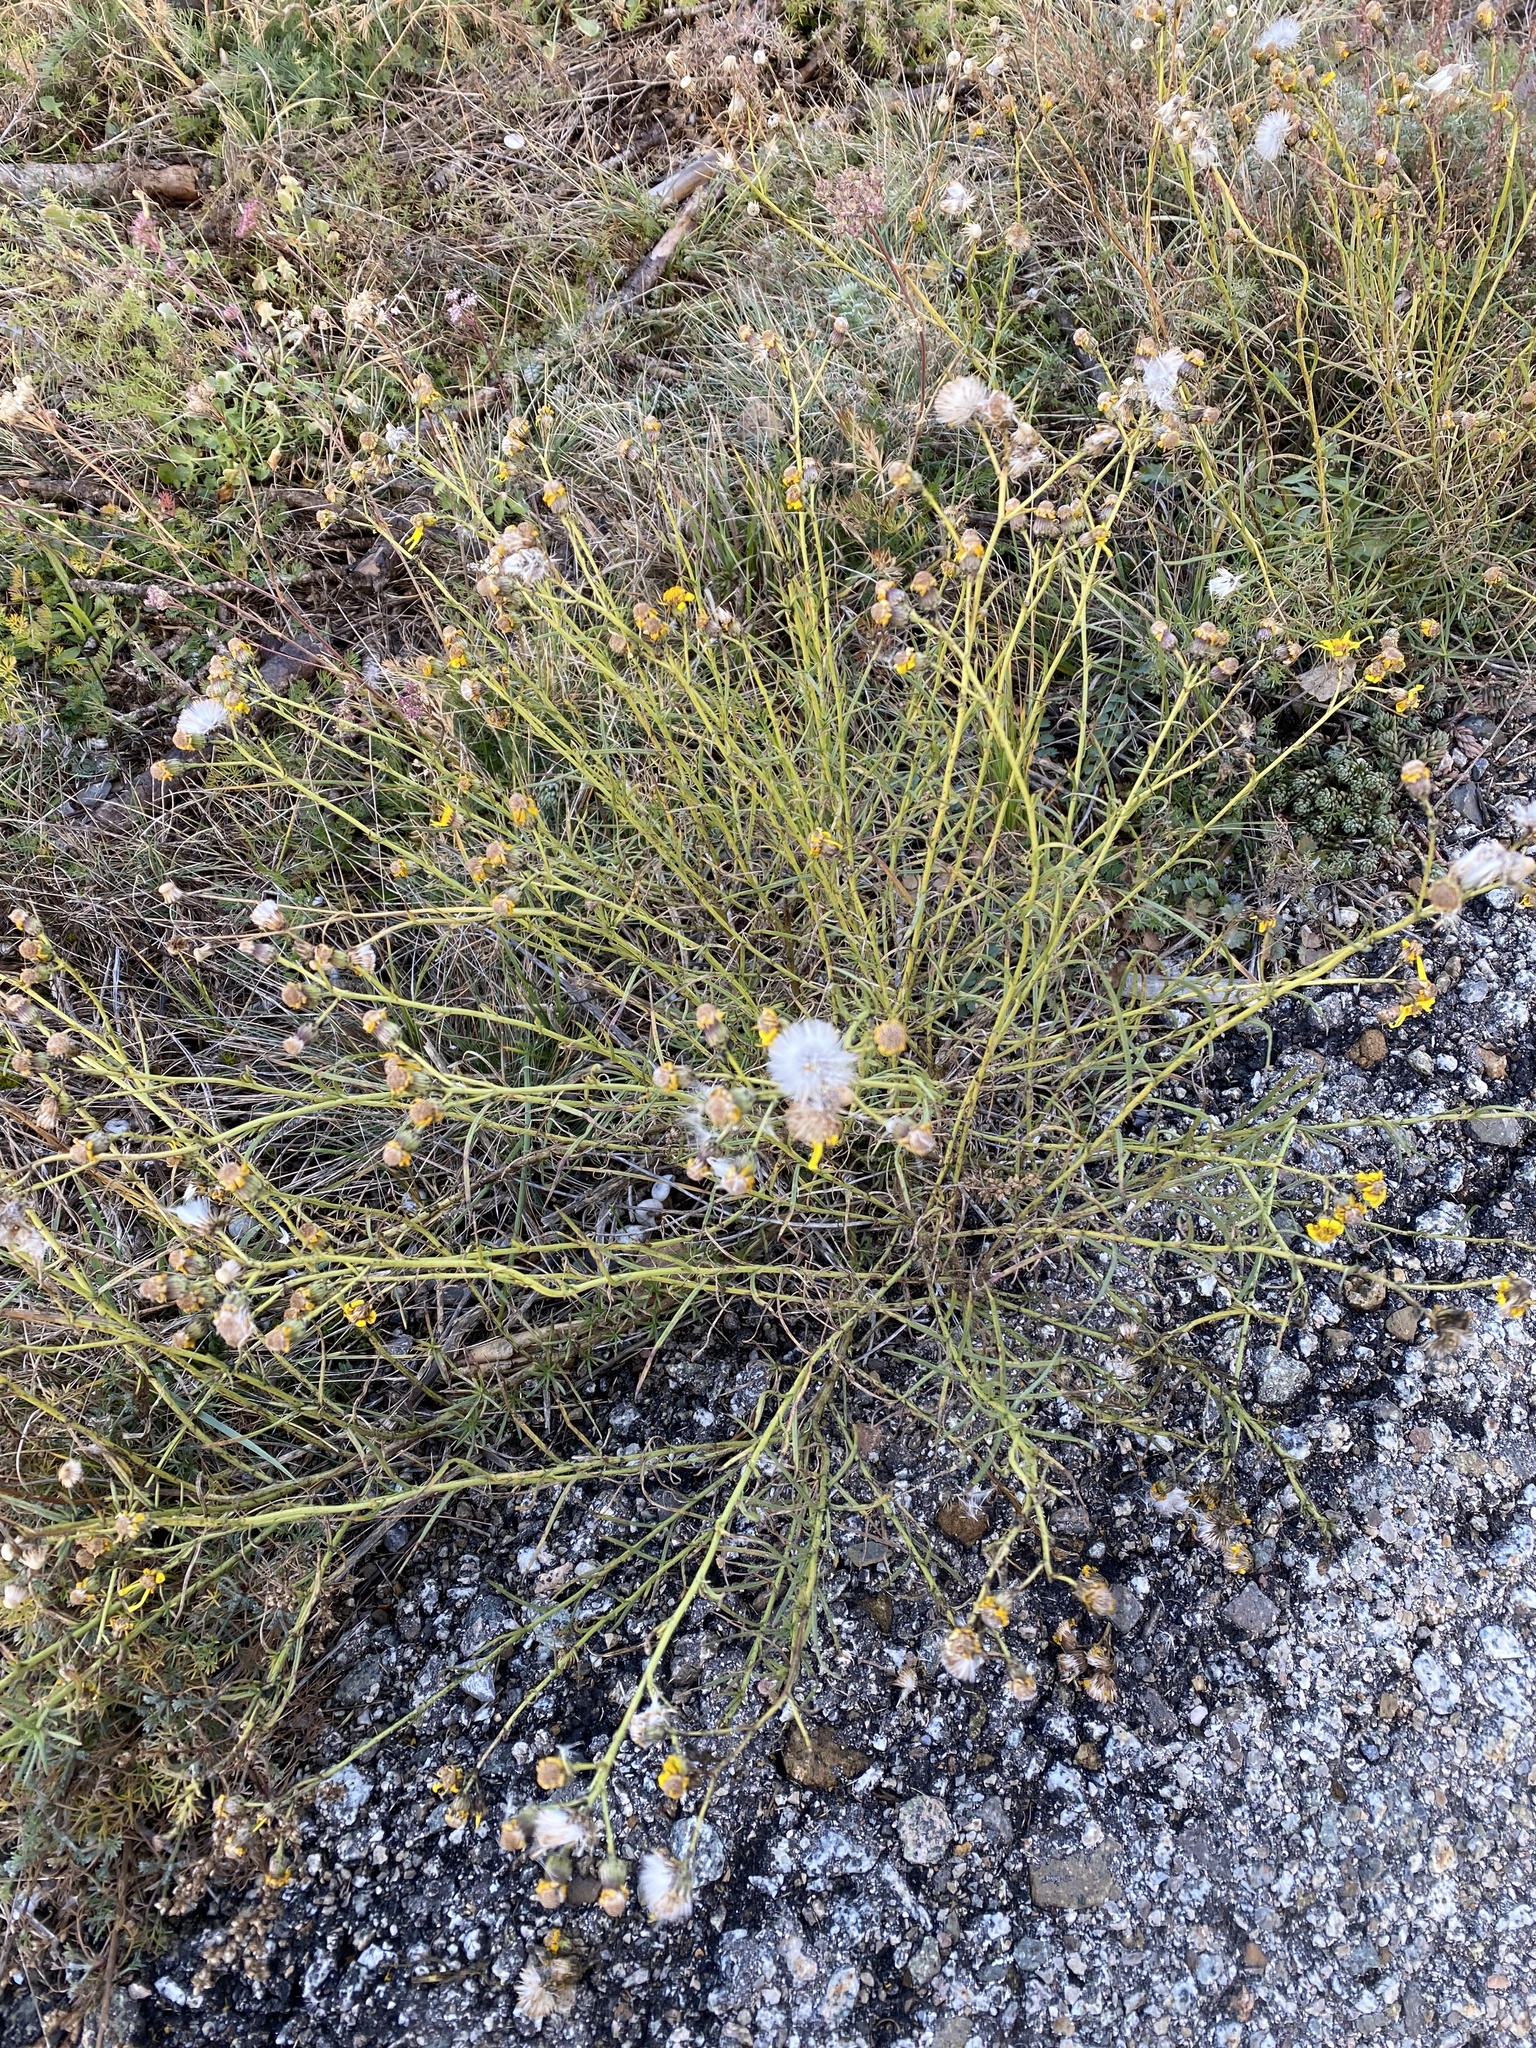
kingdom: Plantae
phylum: Tracheophyta
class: Magnoliopsida
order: Asterales
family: Asteraceae
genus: Senecio
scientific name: Senecio inaequidens
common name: Narrow-leaved ragwort
